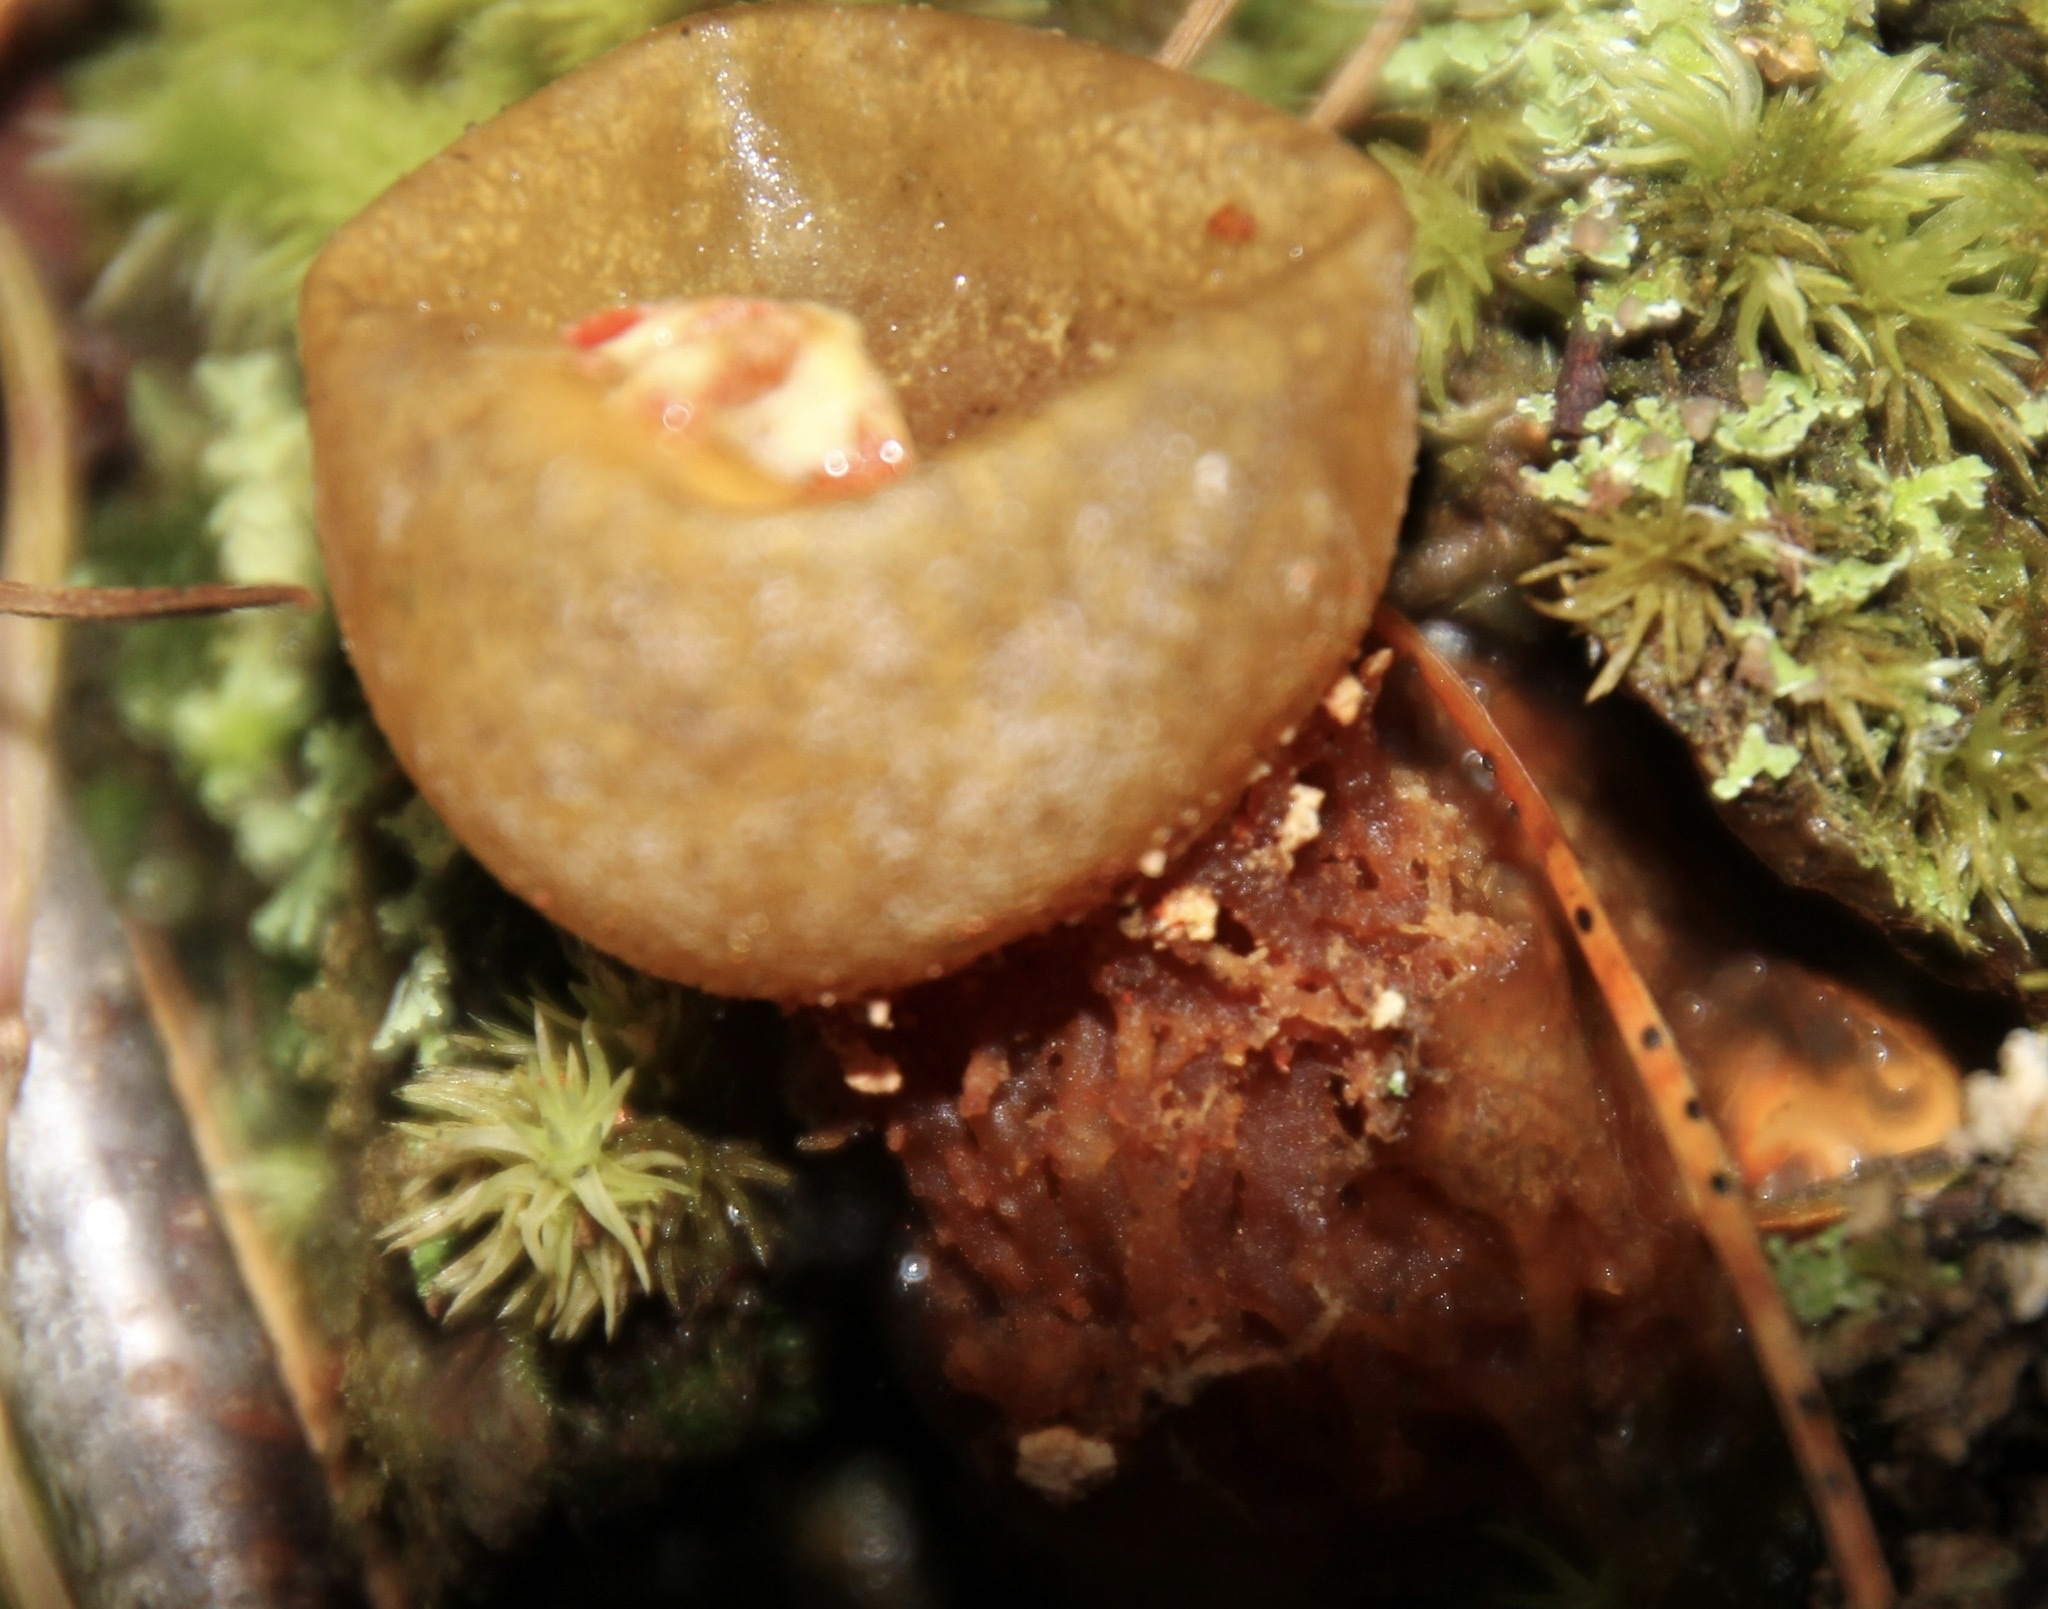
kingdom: Fungi
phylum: Basidiomycota
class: Agaricomycetes
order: Boletales
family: Calostomataceae
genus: Calostoma
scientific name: Calostoma
